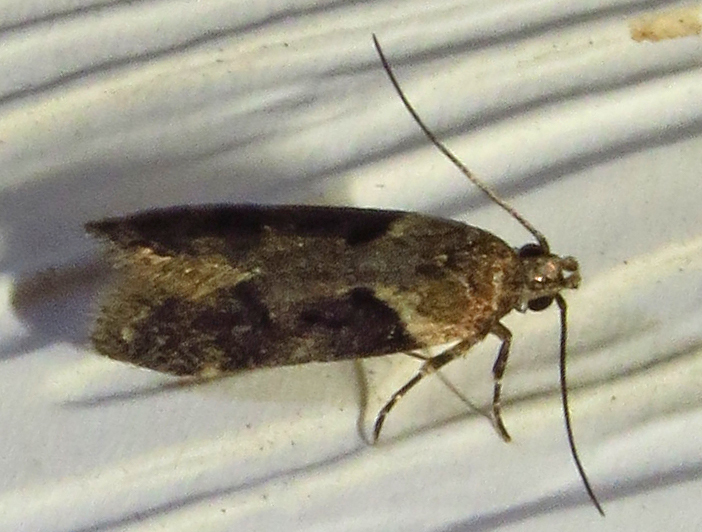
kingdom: Animalia
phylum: Arthropoda
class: Insecta
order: Lepidoptera
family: Gelechiidae
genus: Chionodes
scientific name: Chionodes mediofuscella
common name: Black-smudged chionodes moth
